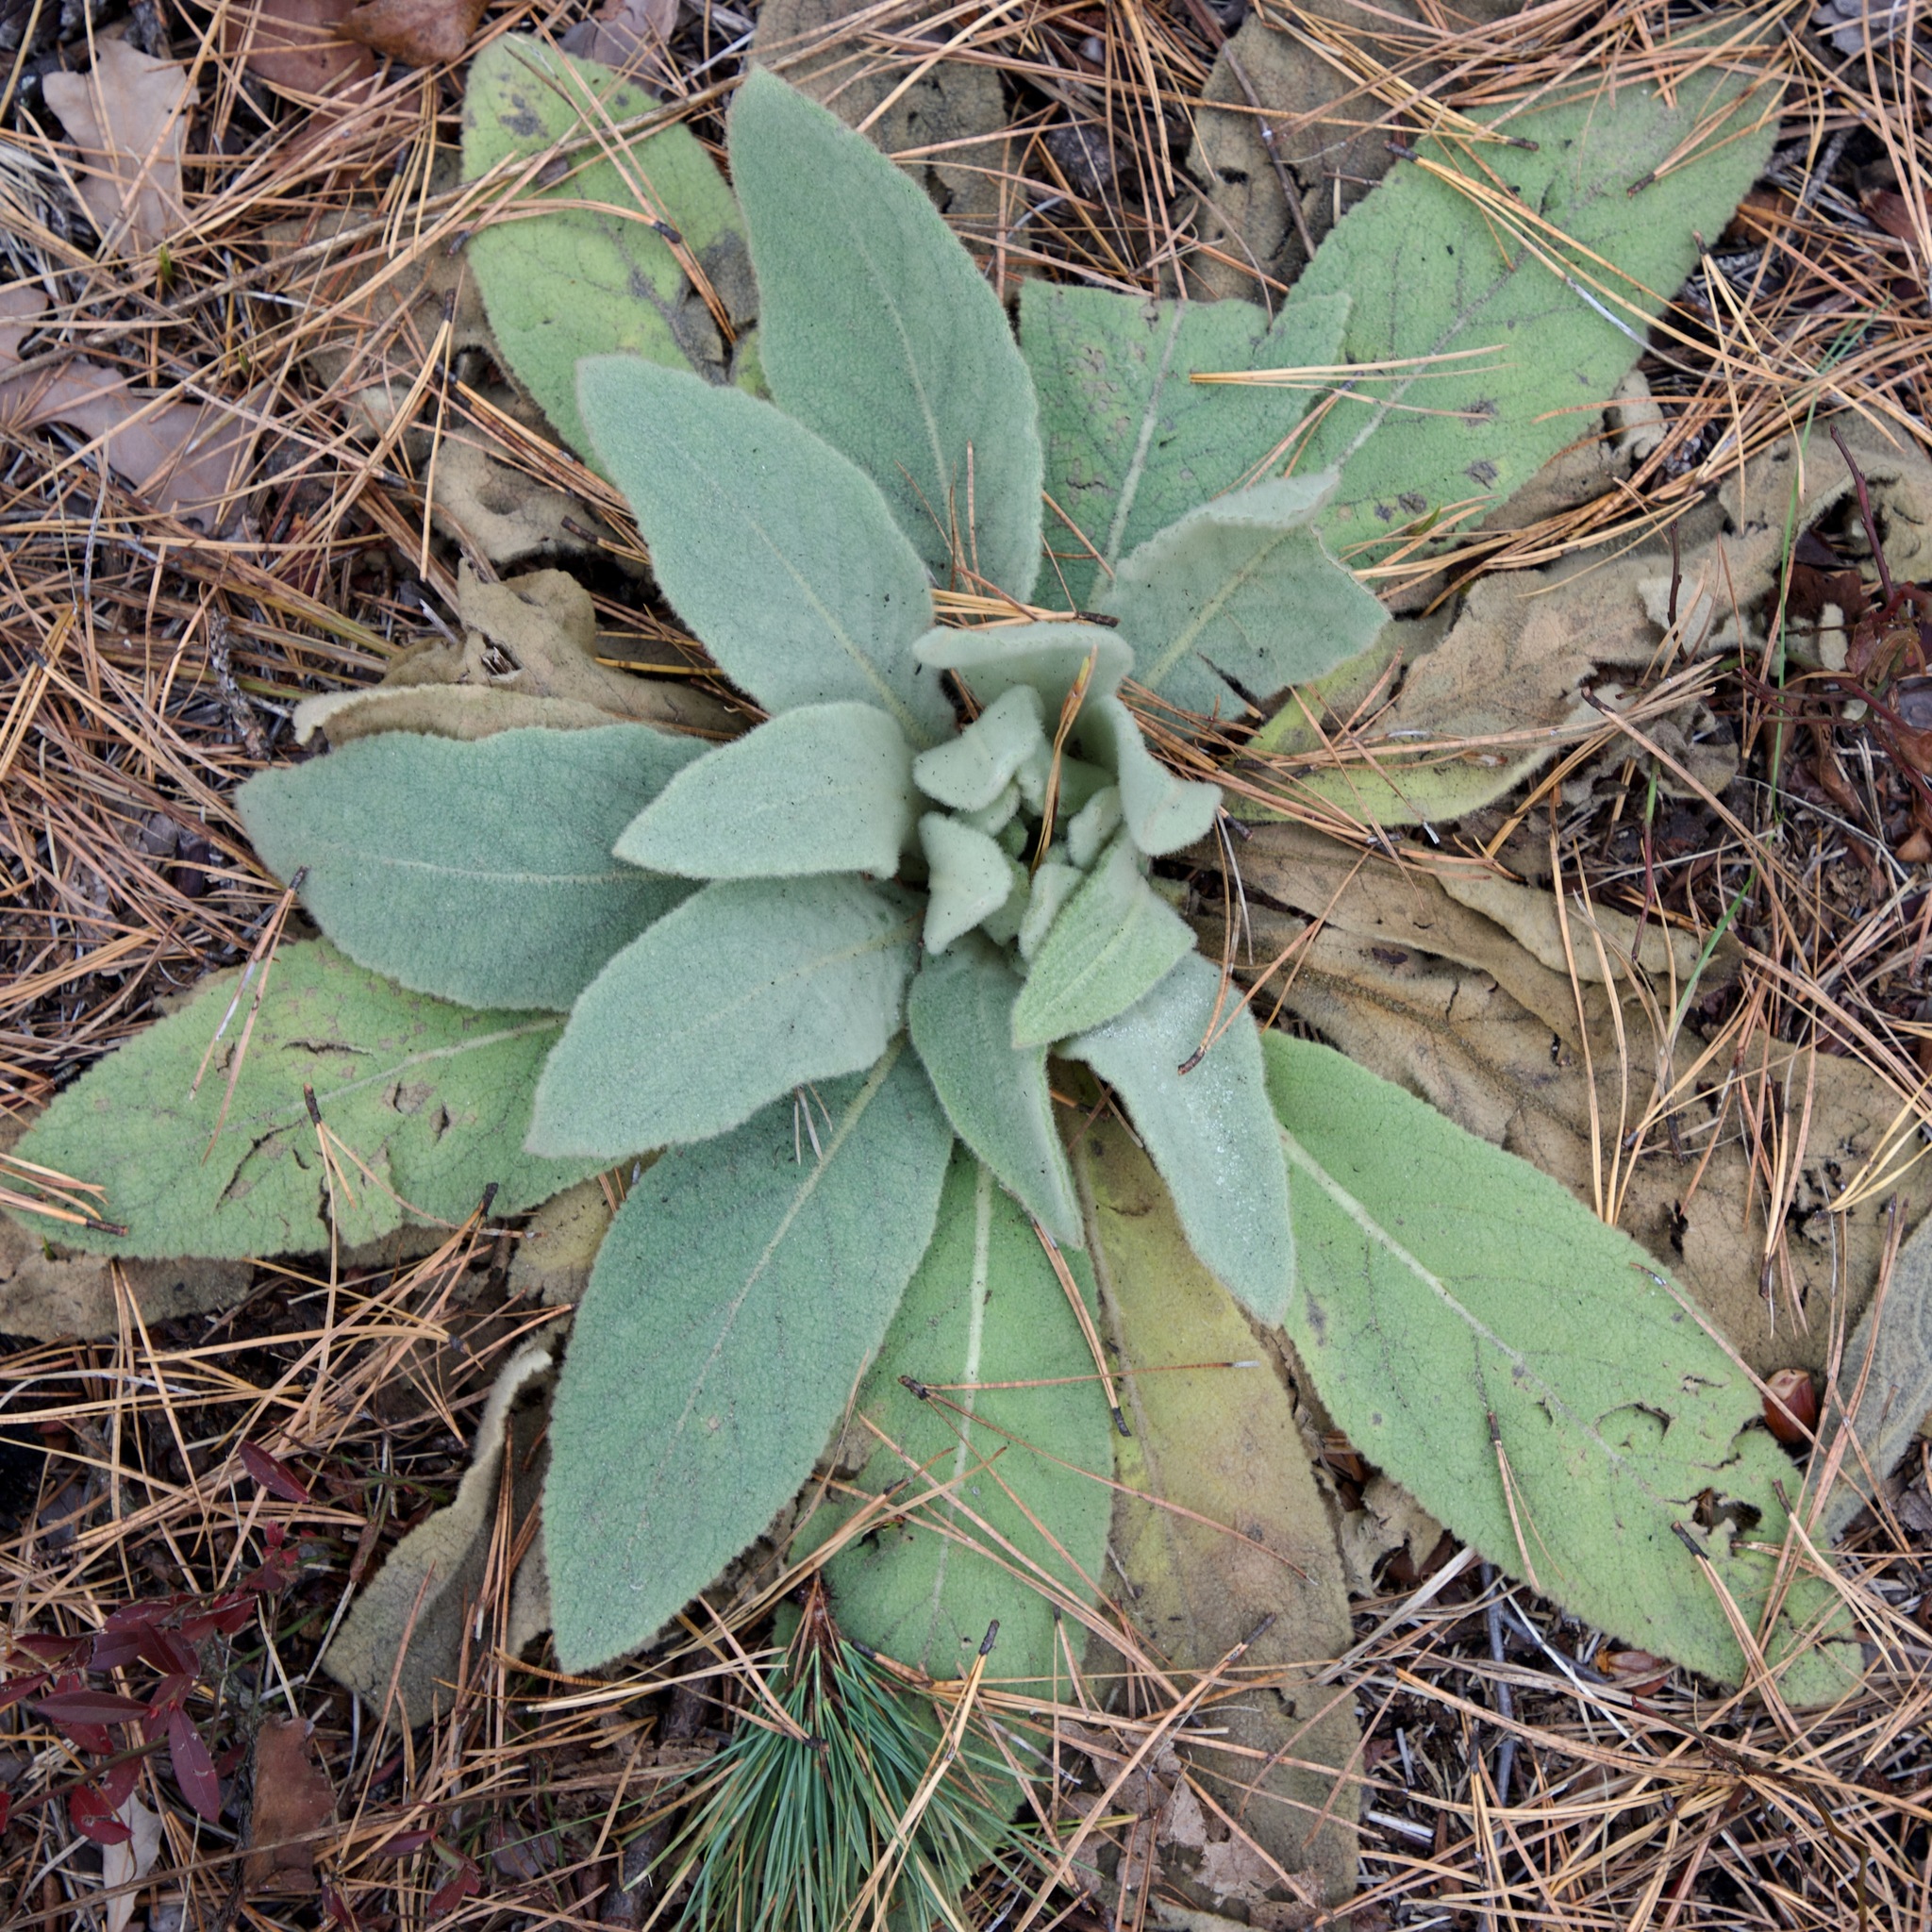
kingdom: Plantae
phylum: Tracheophyta
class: Magnoliopsida
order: Lamiales
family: Scrophulariaceae
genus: Verbascum
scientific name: Verbascum thapsus
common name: Common mullein
